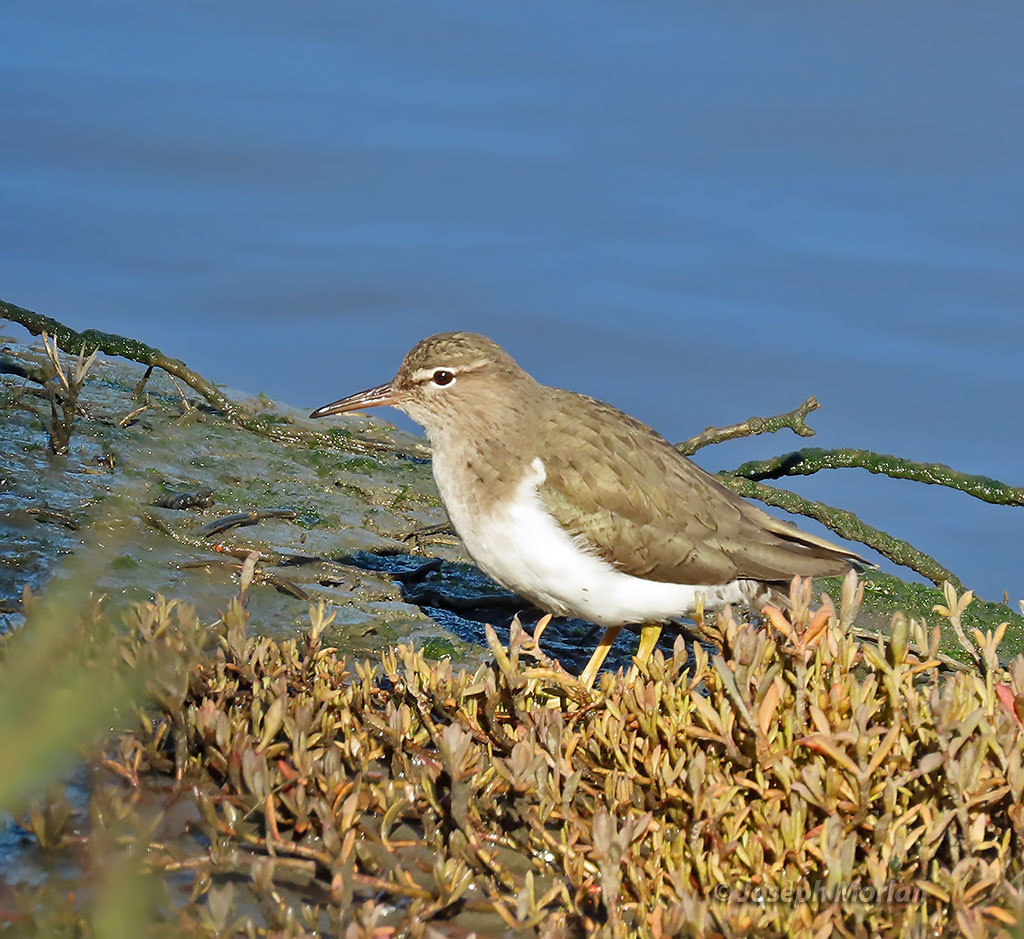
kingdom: Animalia
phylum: Chordata
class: Aves
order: Charadriiformes
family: Scolopacidae
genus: Actitis
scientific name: Actitis macularius
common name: Spotted sandpiper
